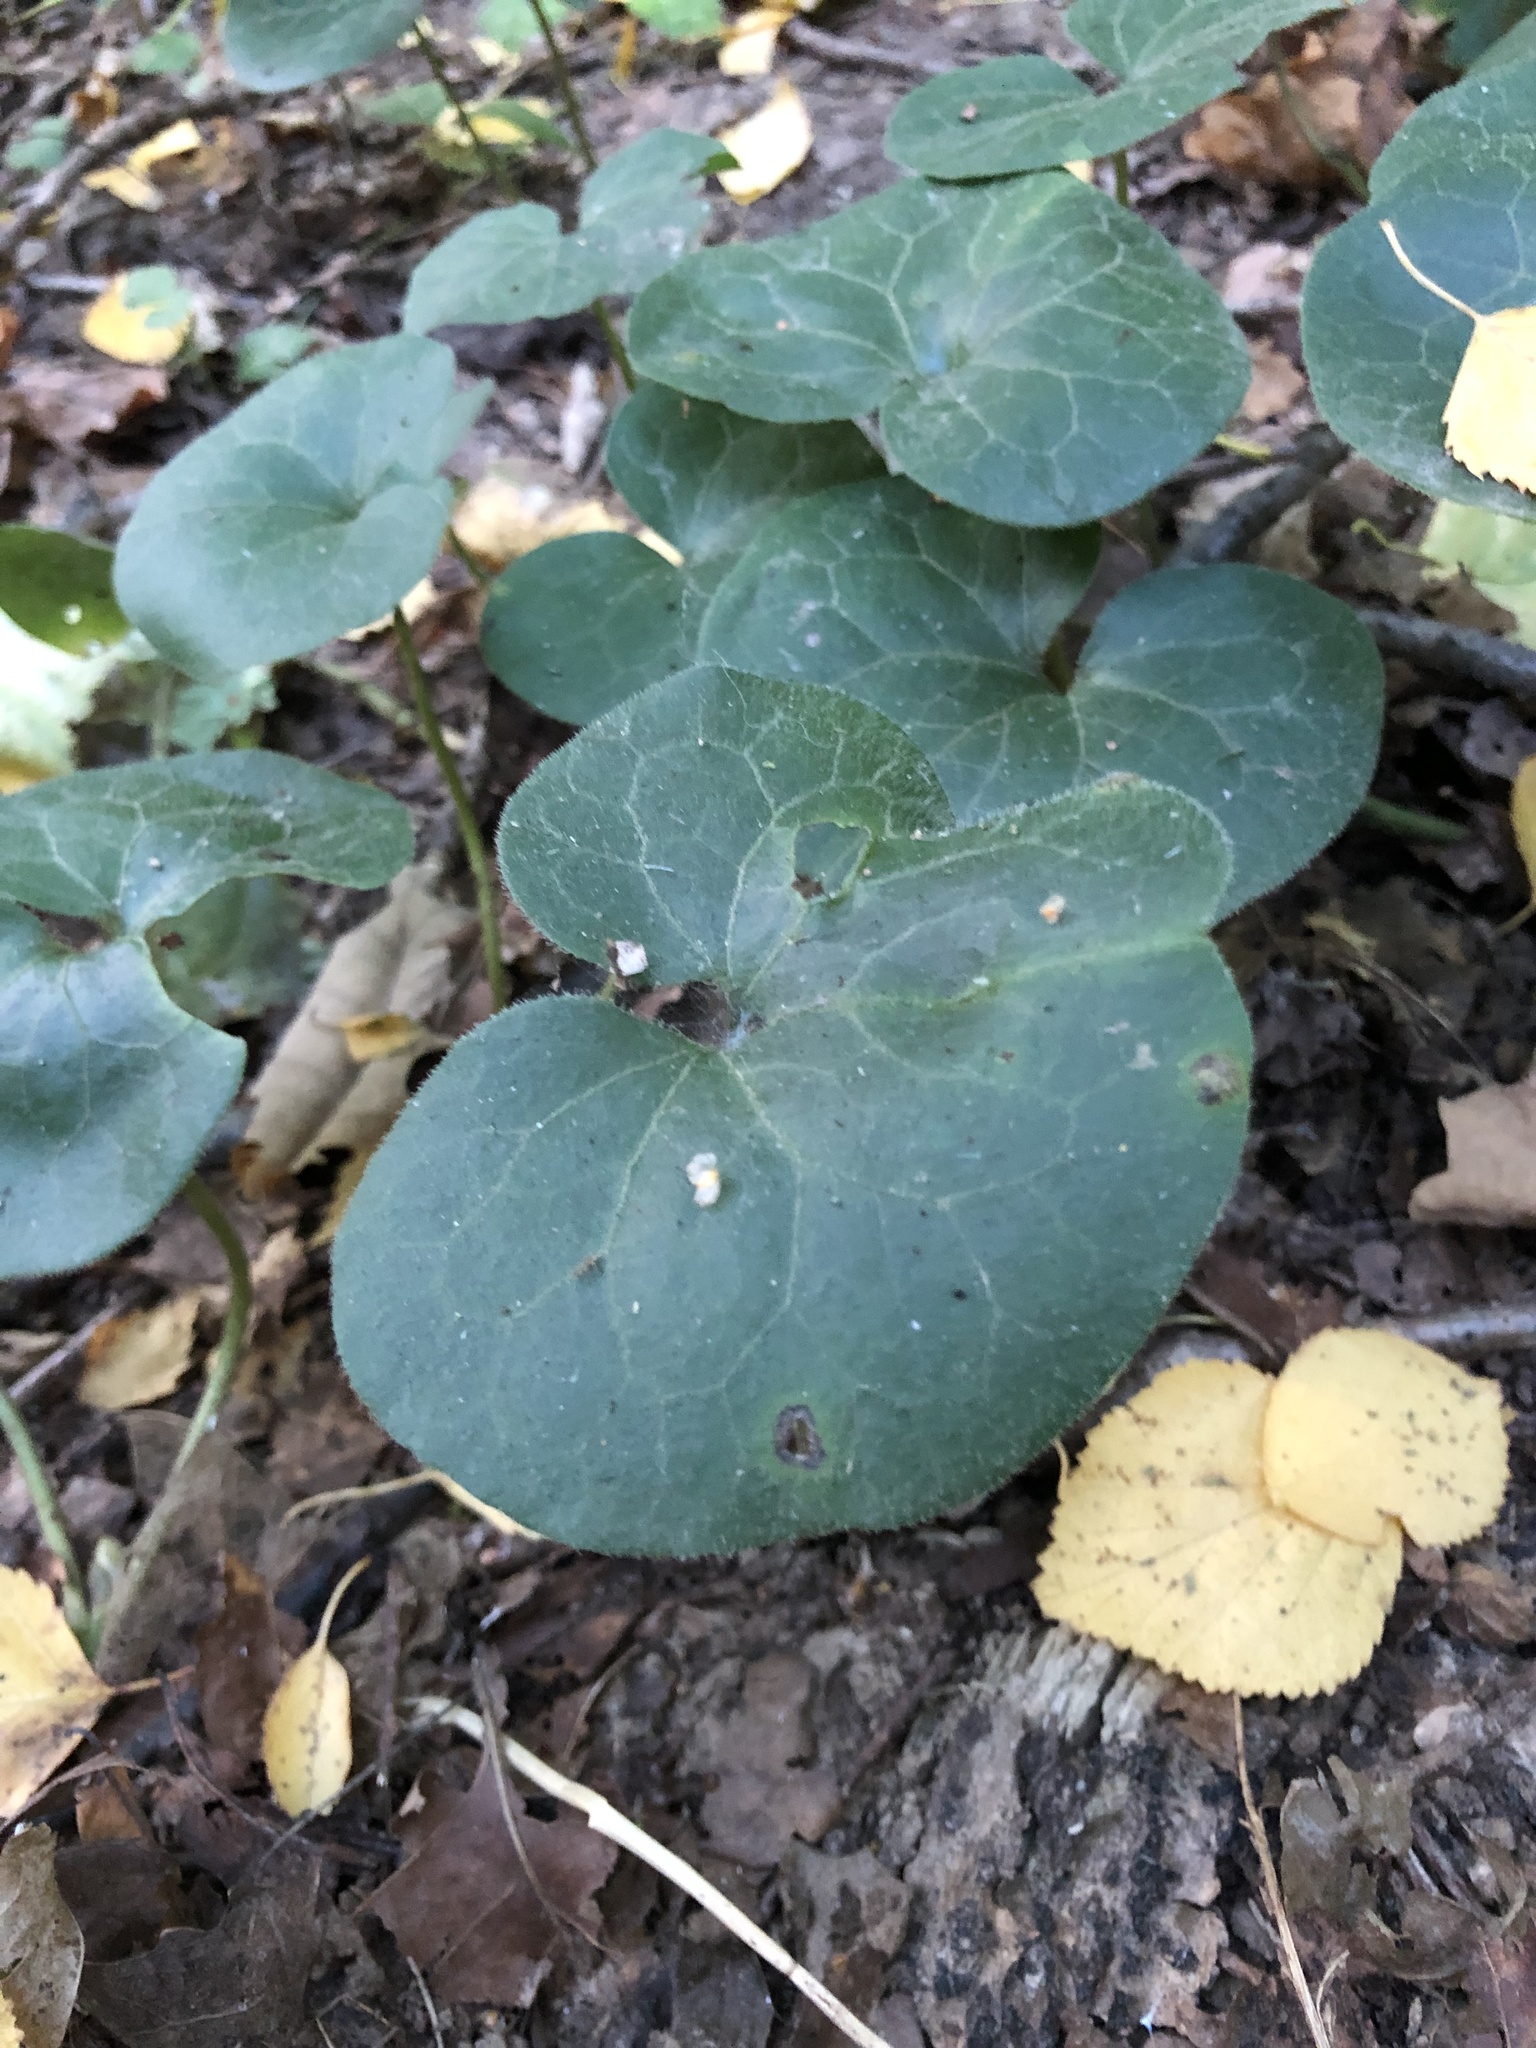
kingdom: Plantae
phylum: Tracheophyta
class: Magnoliopsida
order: Piperales
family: Aristolochiaceae
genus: Asarum
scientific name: Asarum europaeum
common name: Asarabacca
